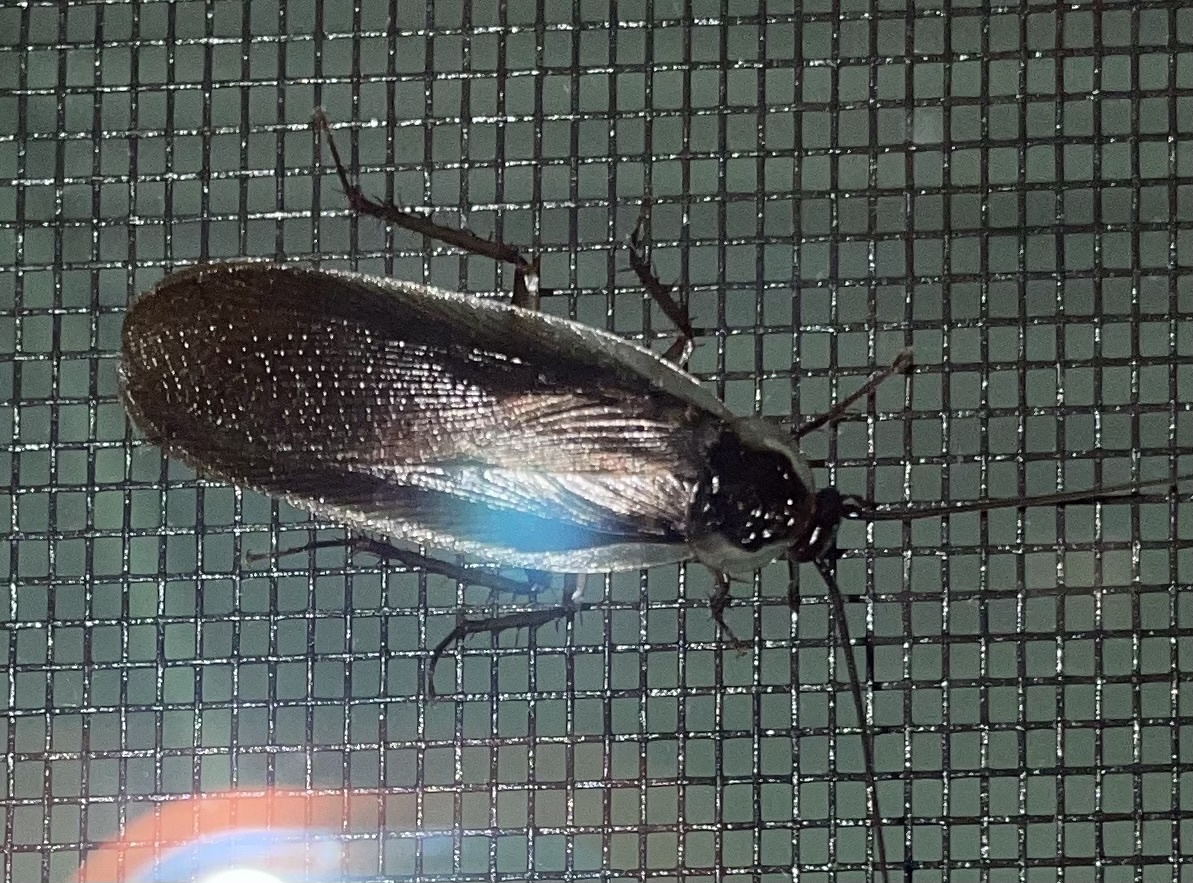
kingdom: Animalia
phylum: Arthropoda
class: Insecta
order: Blattodea
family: Ectobiidae
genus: Parcoblatta
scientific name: Parcoblatta pennsylvanica
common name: Pennsylvanian wood cockroach
